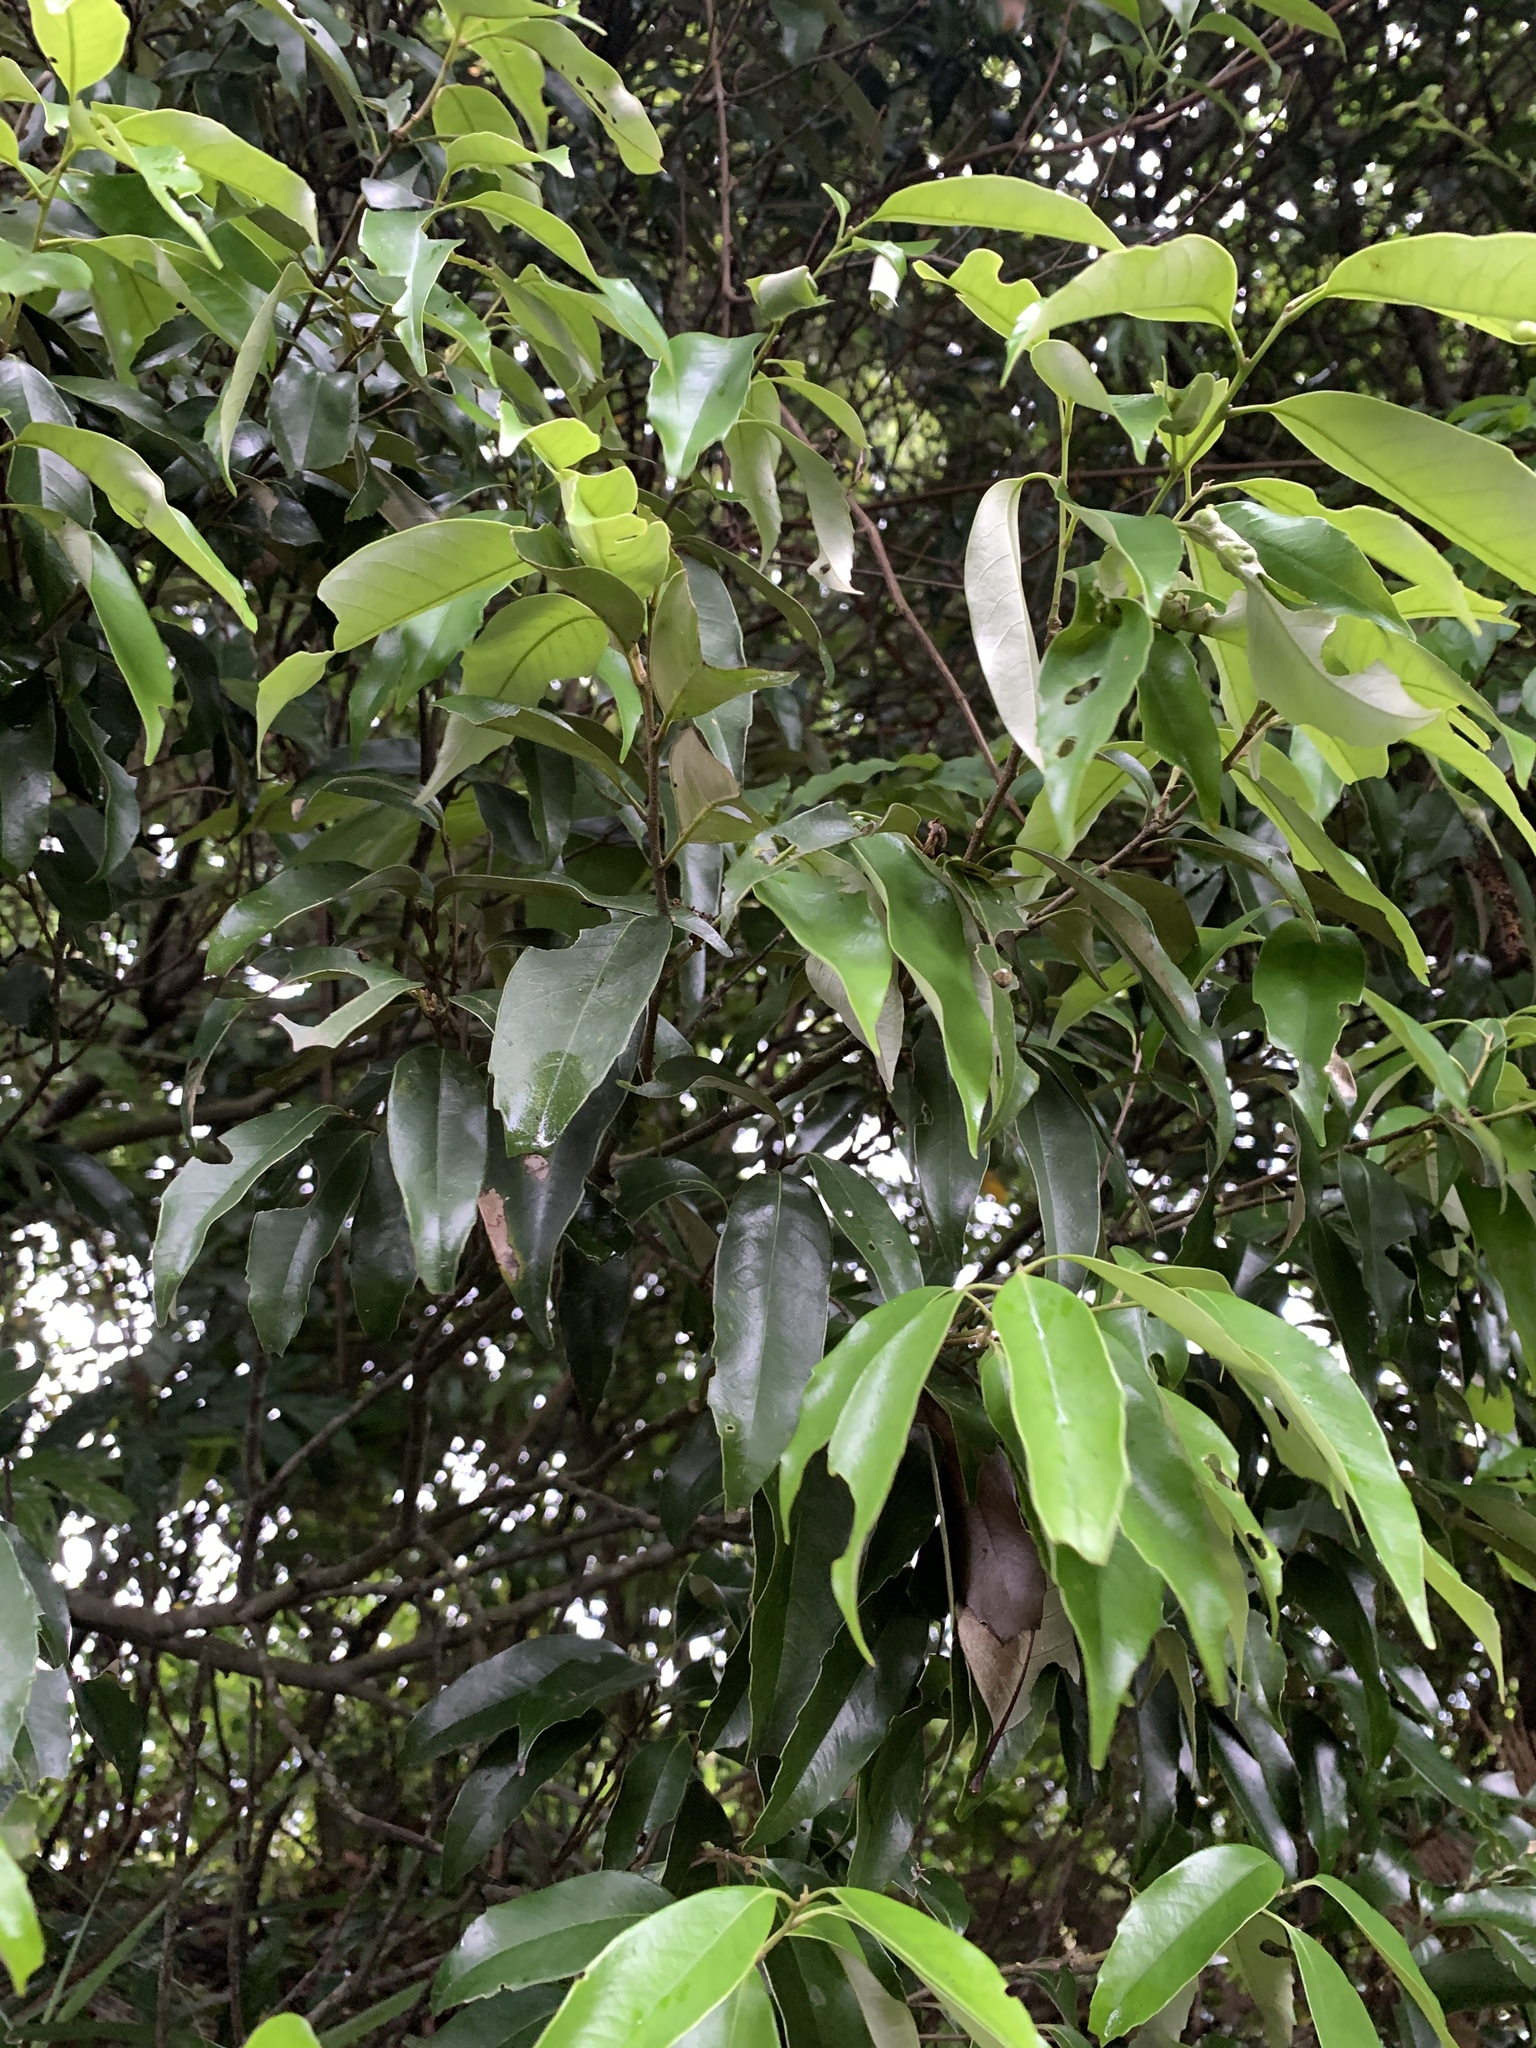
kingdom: Plantae
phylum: Tracheophyta
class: Magnoliopsida
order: Fagales
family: Fagaceae
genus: Castanopsis
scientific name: Castanopsis carlesii
